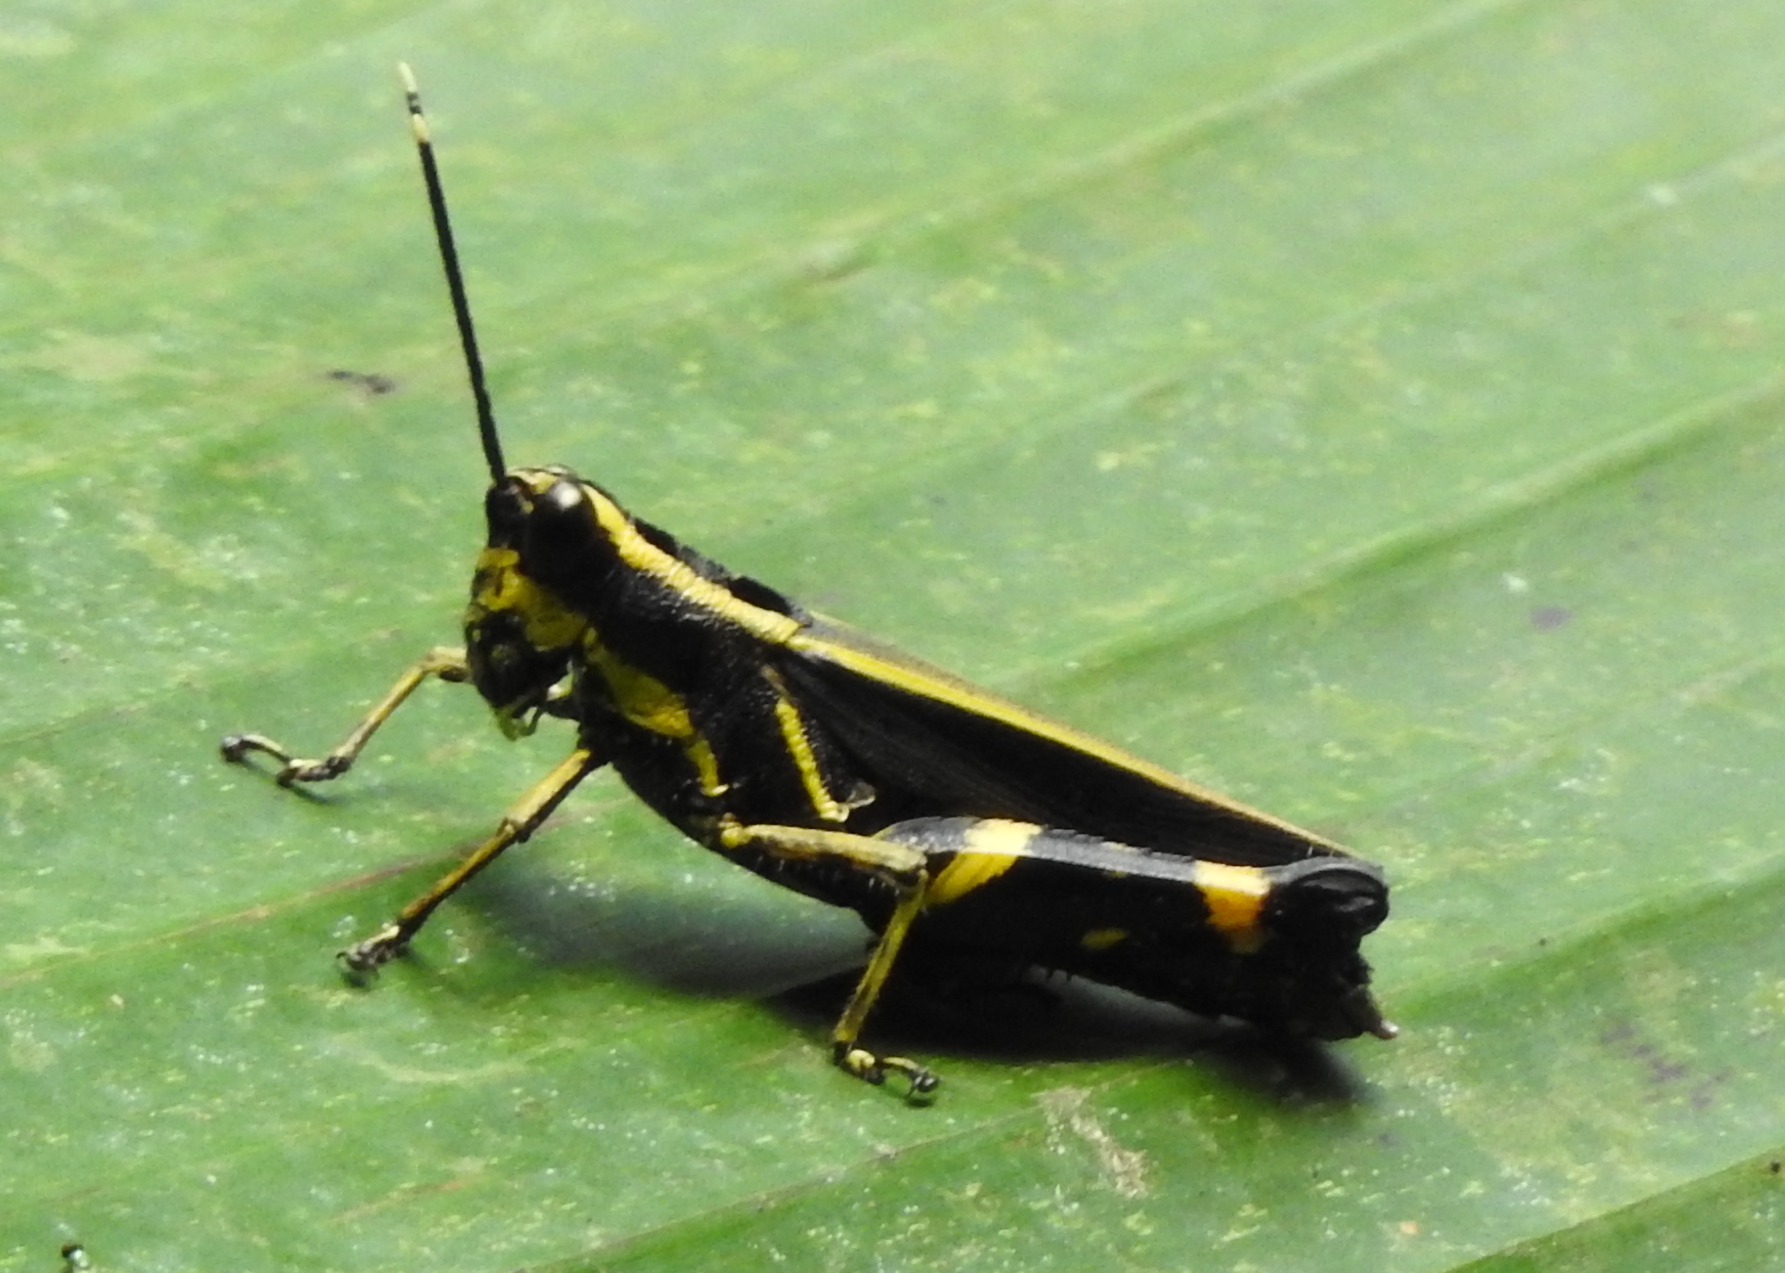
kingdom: Animalia
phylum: Arthropoda
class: Insecta
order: Orthoptera
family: Acrididae
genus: Traulia
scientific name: Traulia azureipennis
